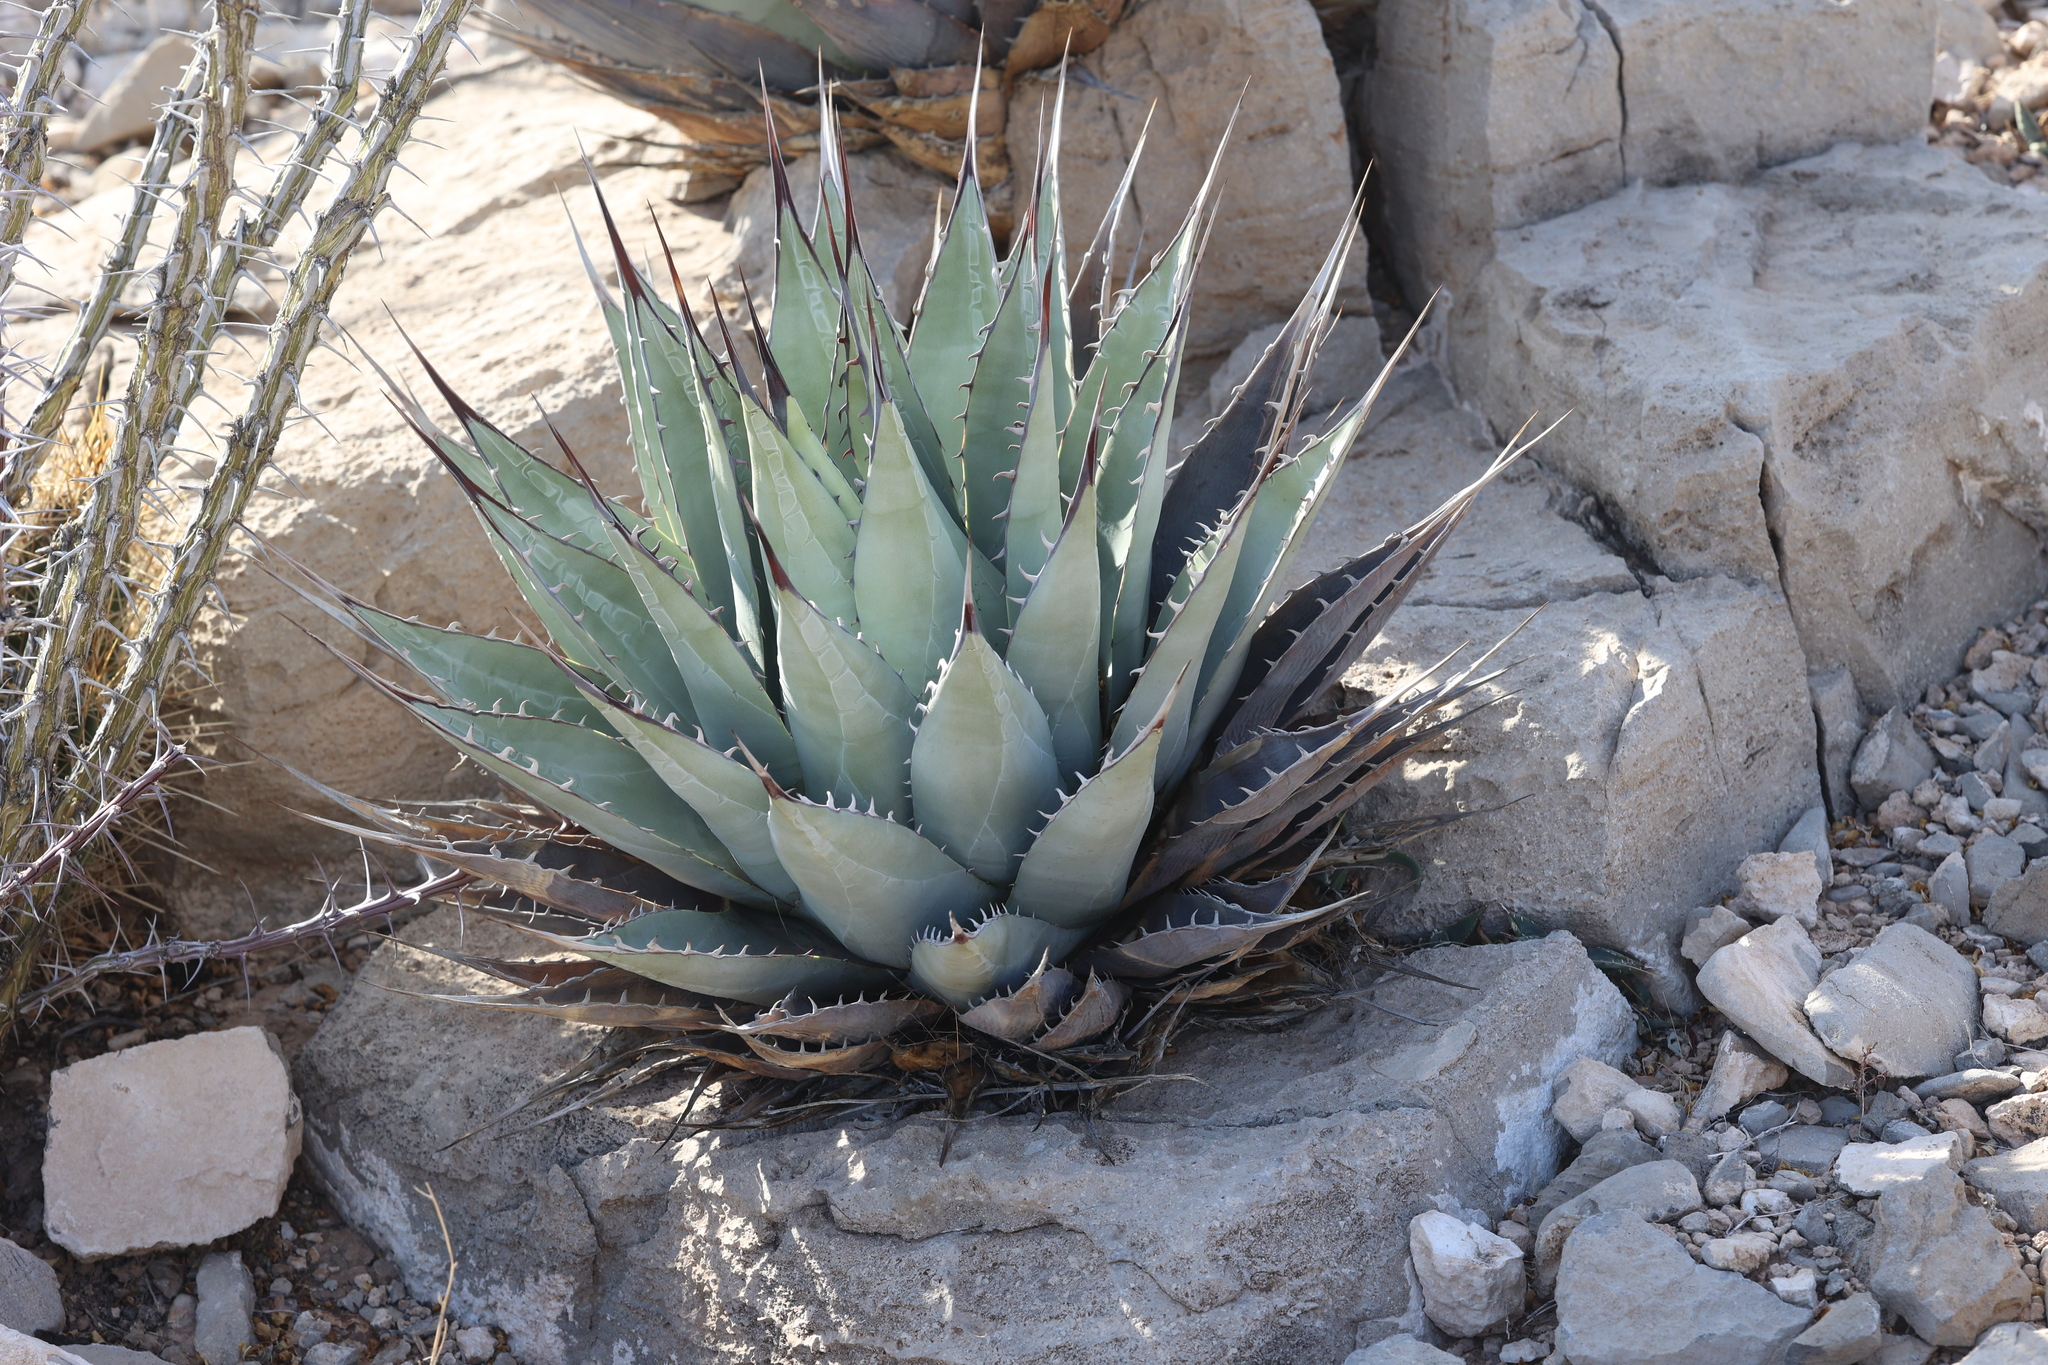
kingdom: Plantae
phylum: Tracheophyta
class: Liliopsida
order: Asparagales
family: Asparagaceae
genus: Agave
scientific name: Agave parryi
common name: Parry's agave
